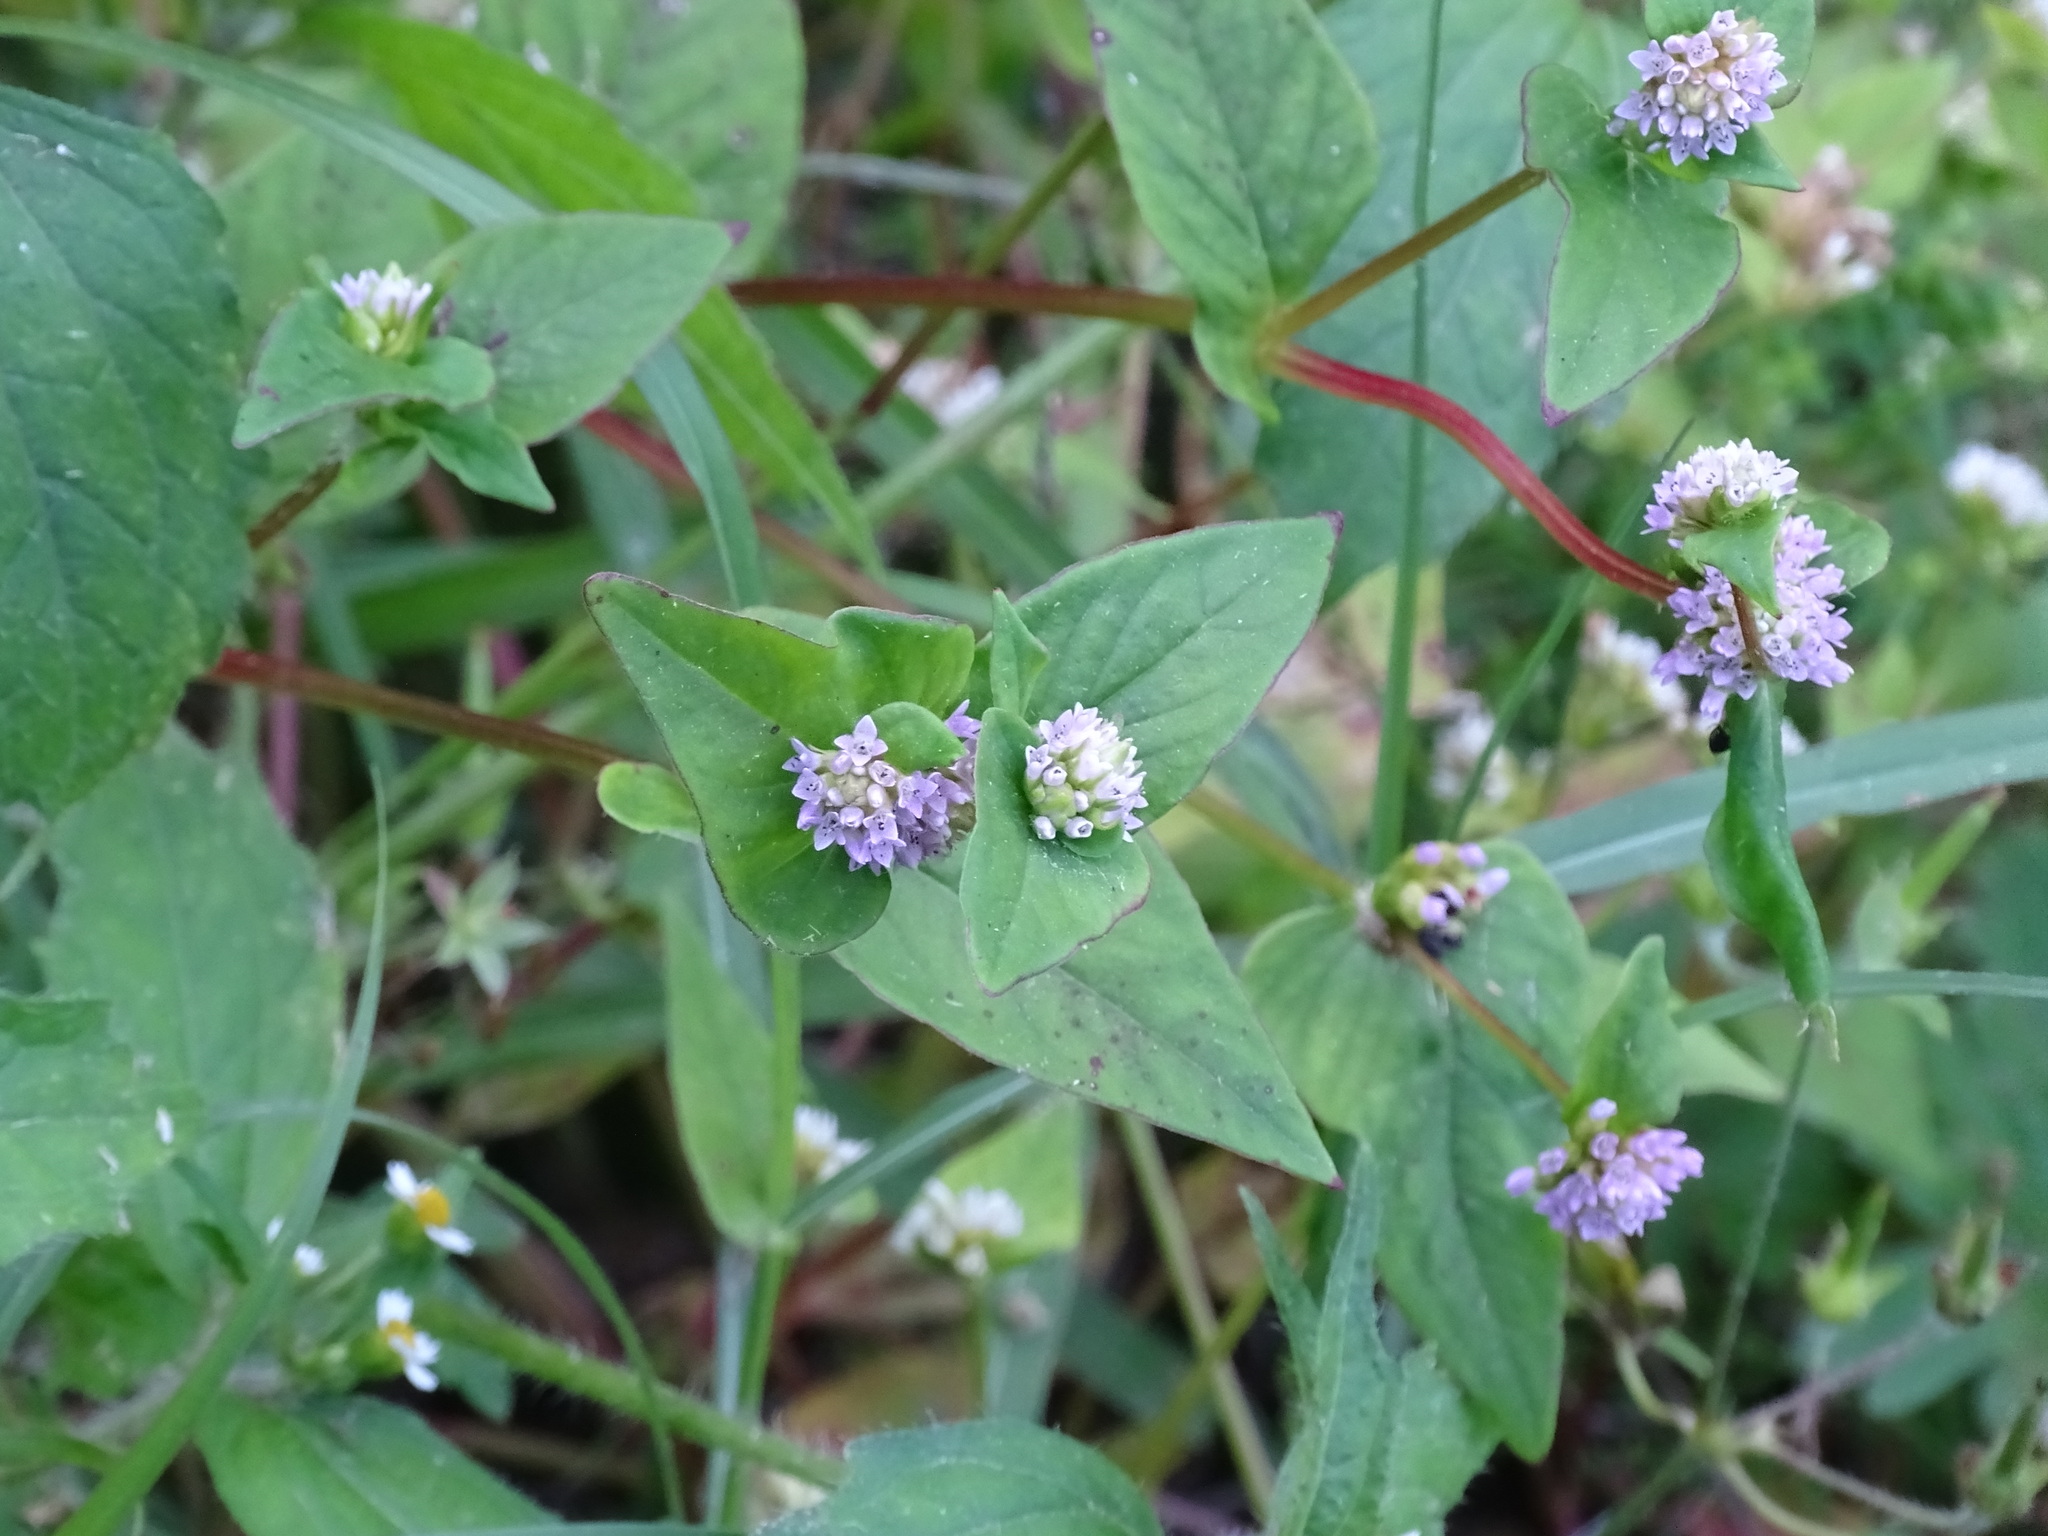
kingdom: Plantae
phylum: Tracheophyta
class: Magnoliopsida
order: Caryophyllales
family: Polygonaceae
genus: Persicaria
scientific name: Persicaria nepalensis
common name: Nepal persicaria
